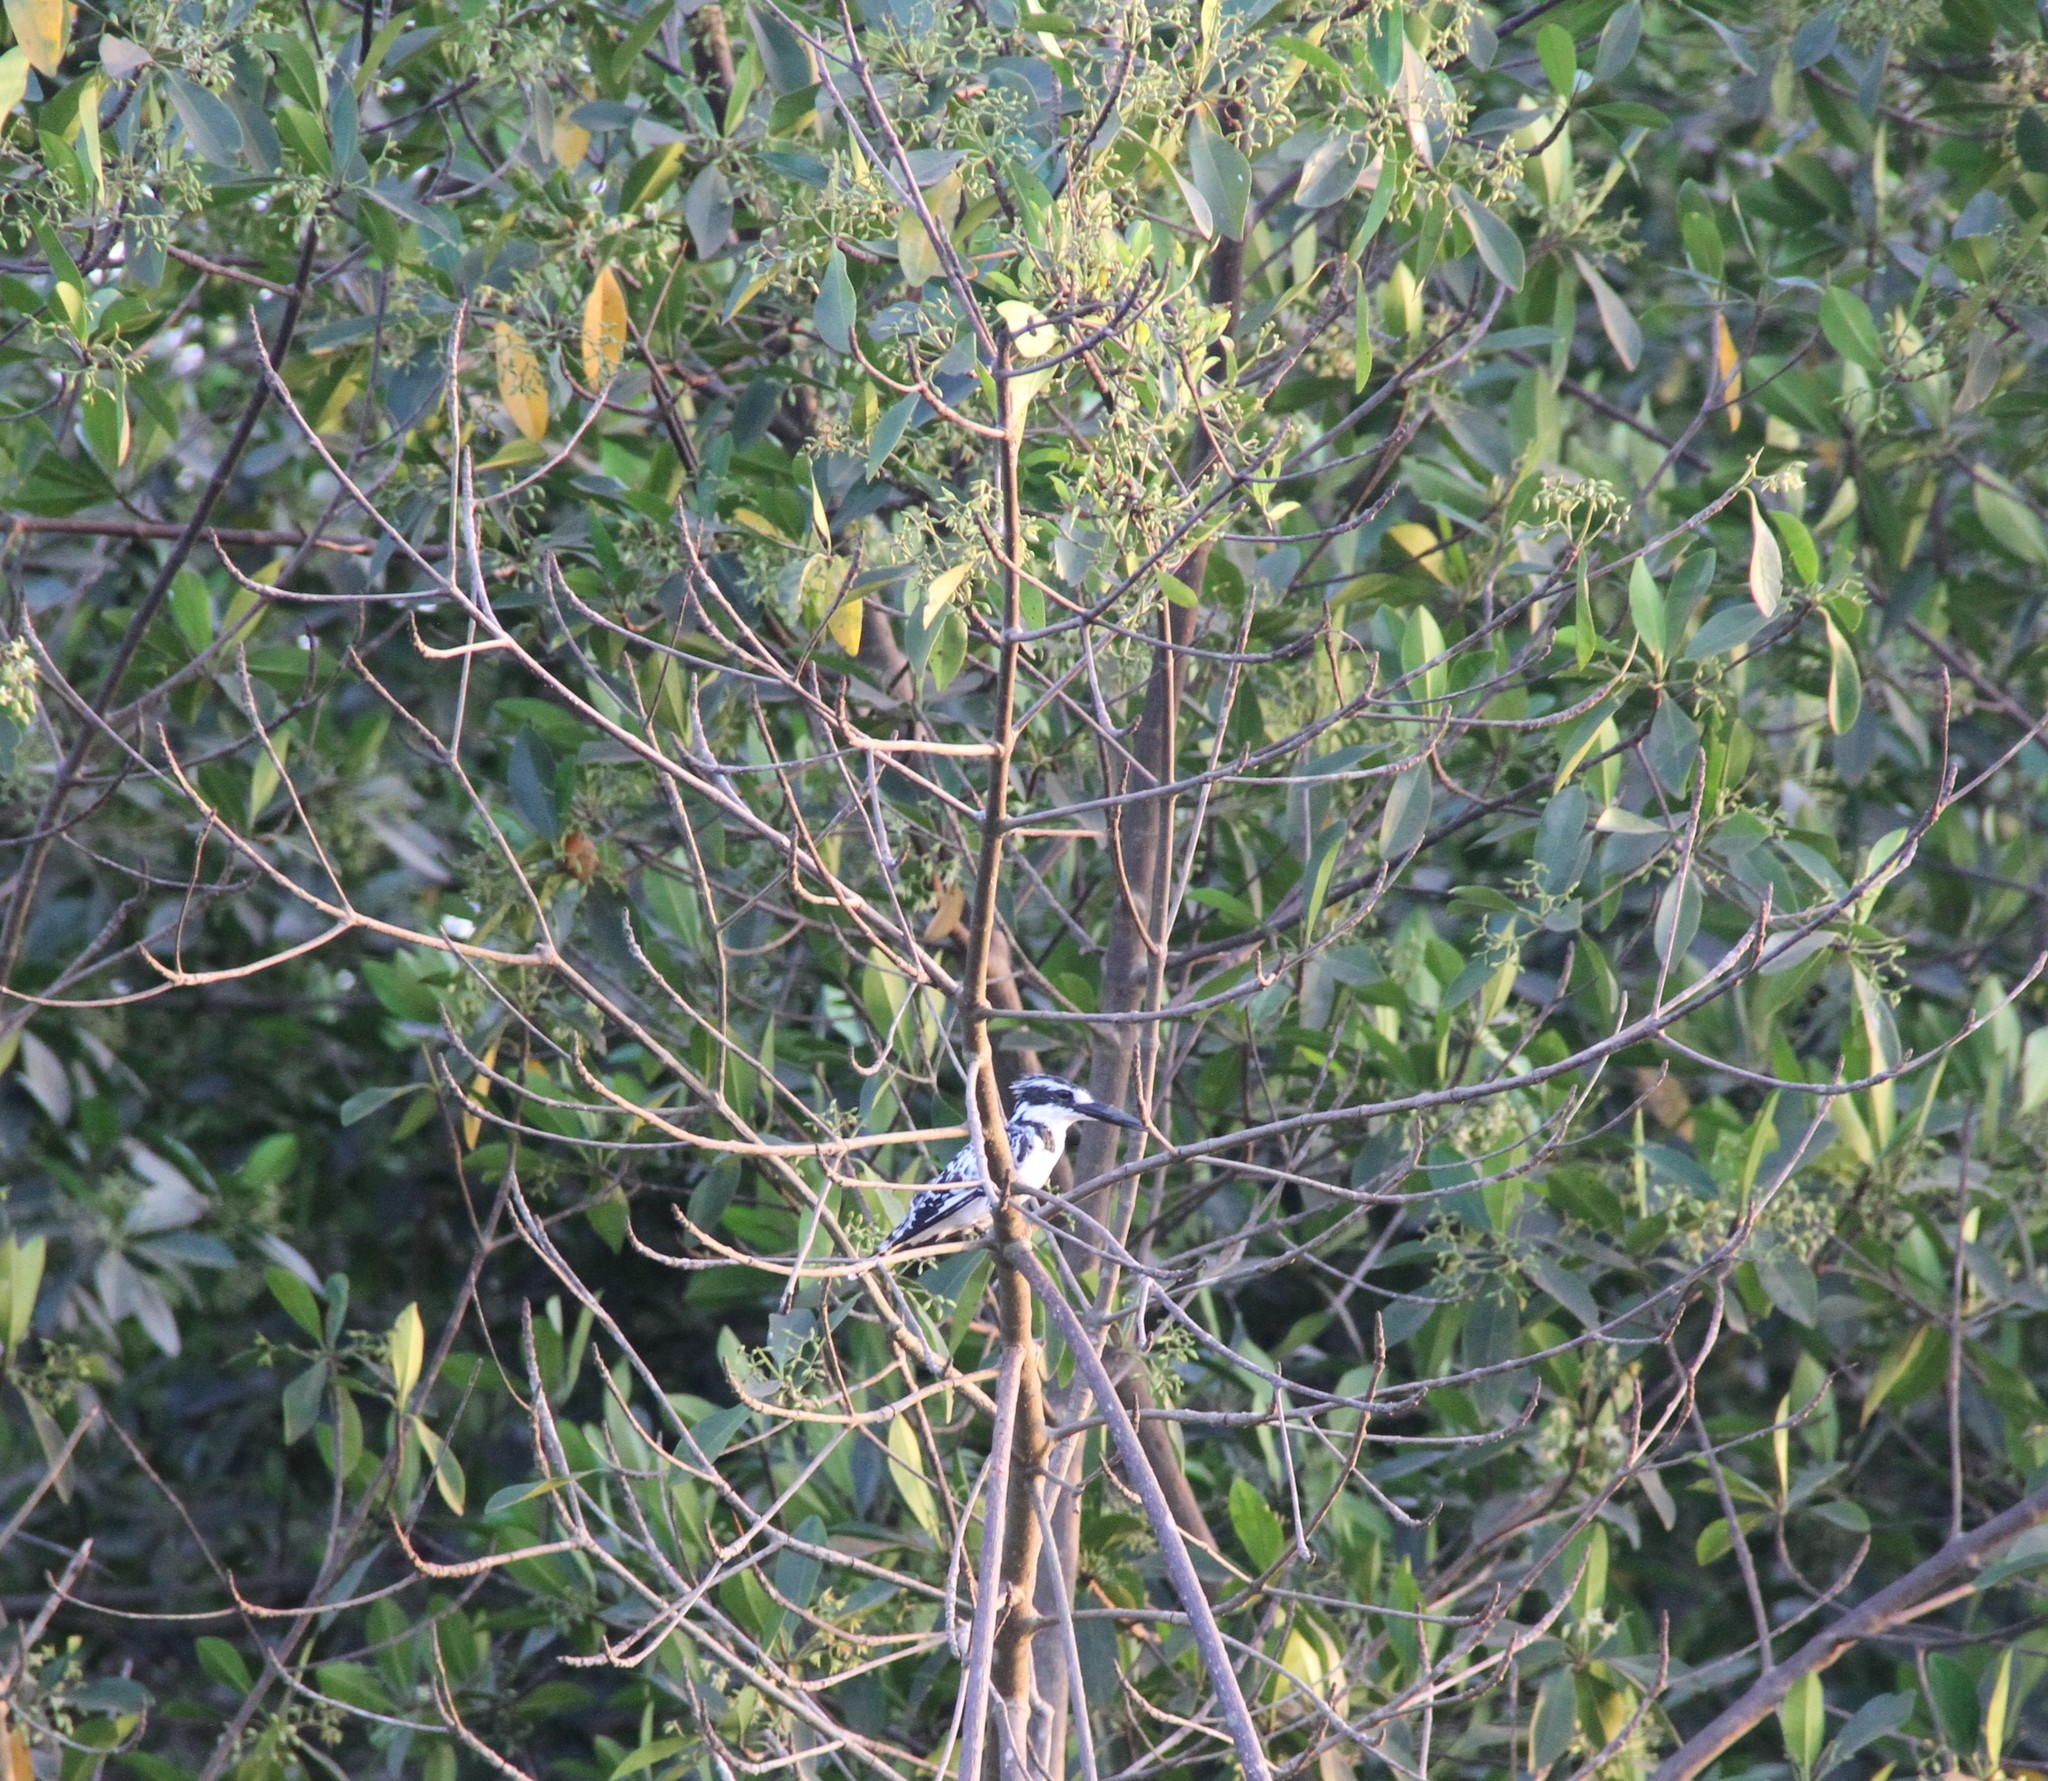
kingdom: Animalia
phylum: Chordata
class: Aves
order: Coraciiformes
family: Alcedinidae
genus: Ceryle
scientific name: Ceryle rudis
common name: Pied kingfisher
